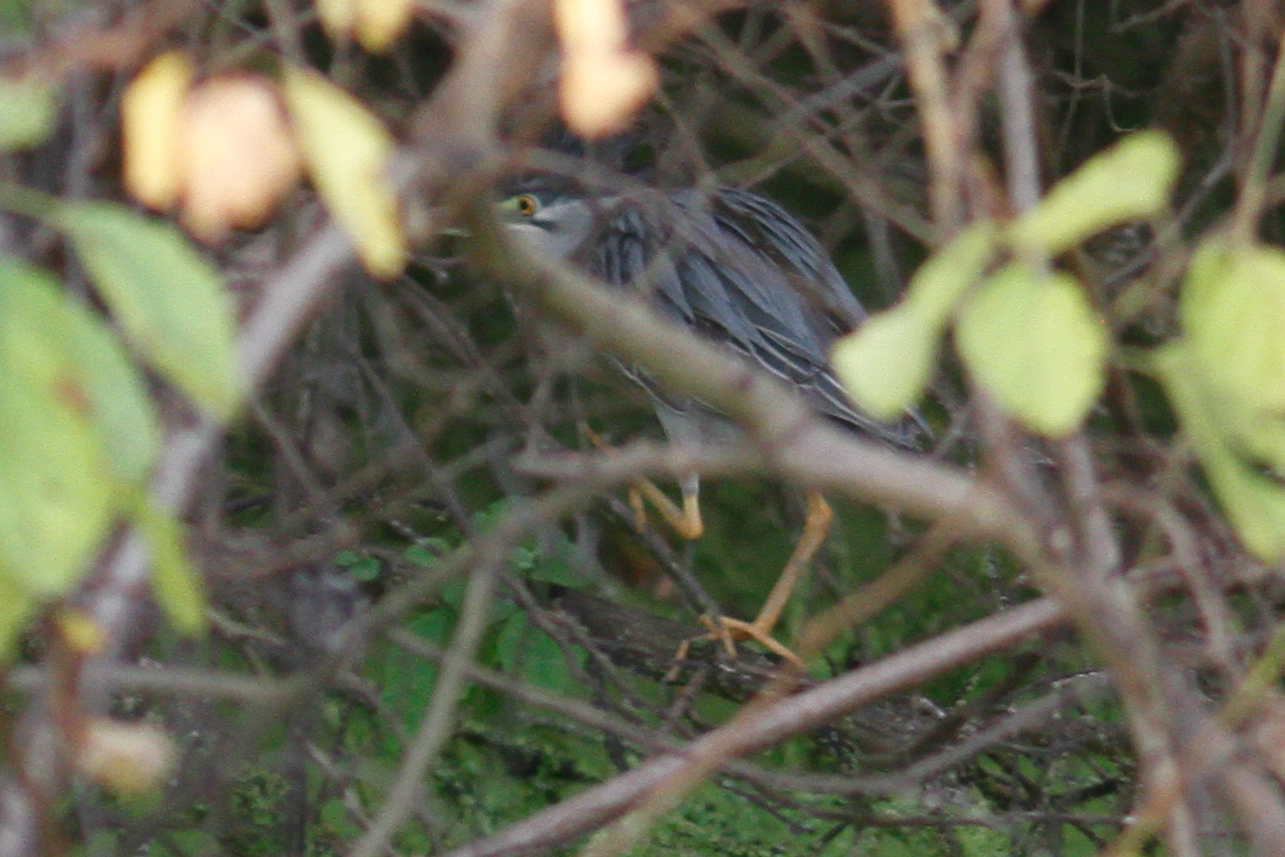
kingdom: Animalia
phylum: Chordata
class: Aves
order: Pelecaniformes
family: Ardeidae
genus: Butorides
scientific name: Butorides striata
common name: Striated heron
